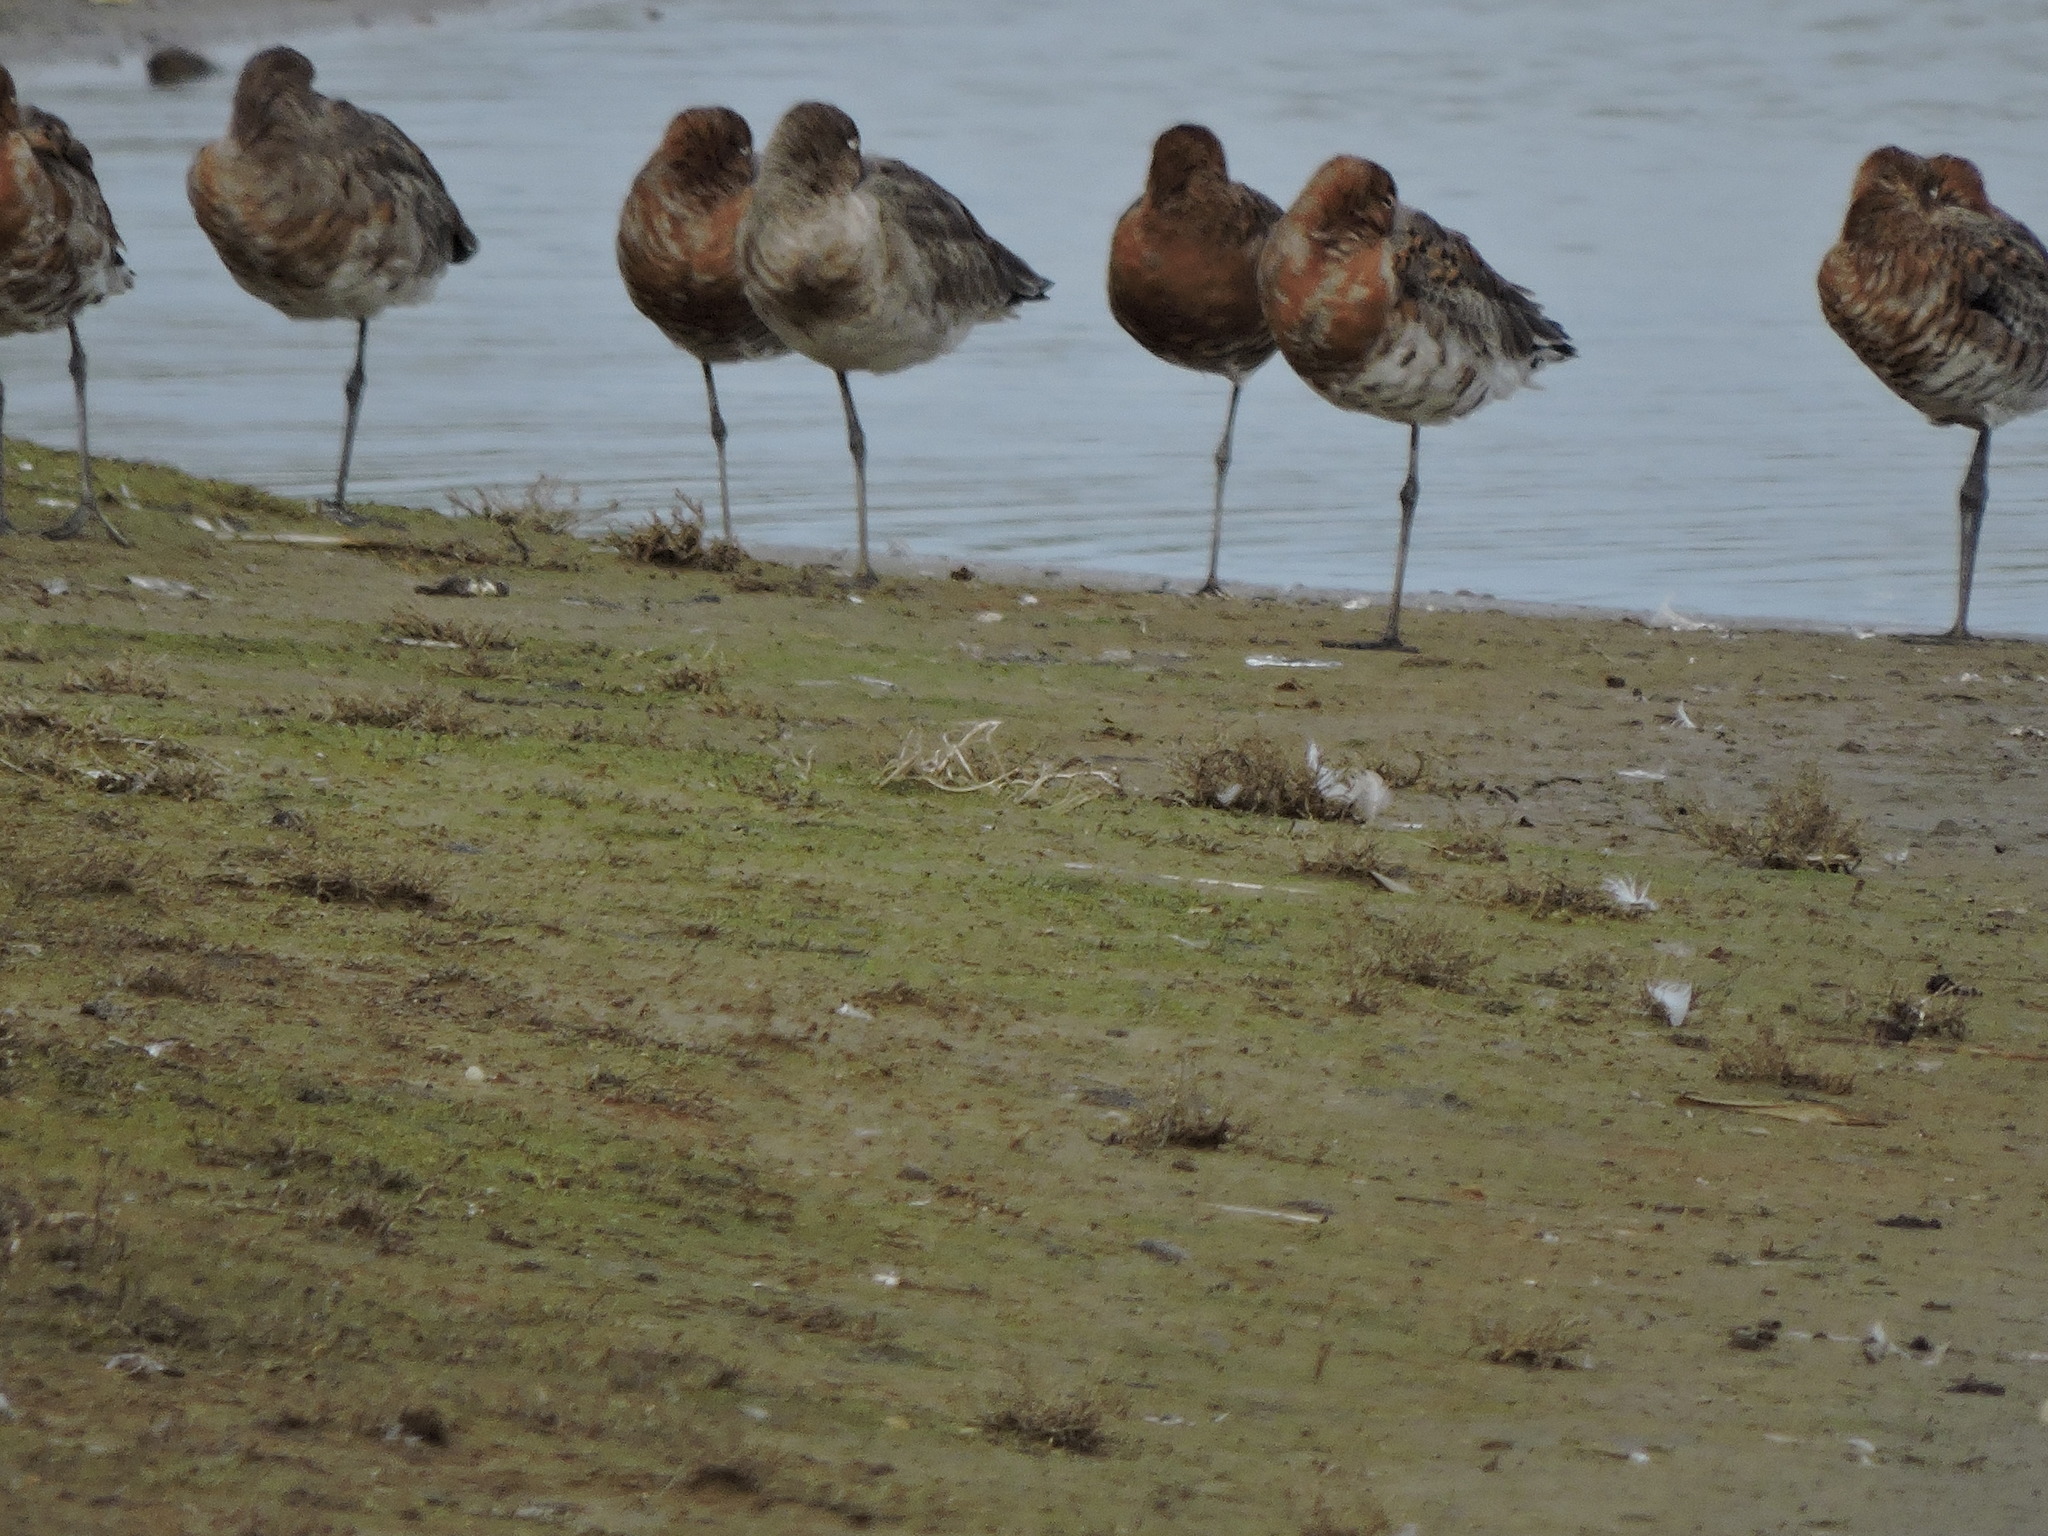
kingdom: Animalia
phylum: Chordata
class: Aves
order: Charadriiformes
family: Scolopacidae
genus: Limosa
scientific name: Limosa limosa
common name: Black-tailed godwit
